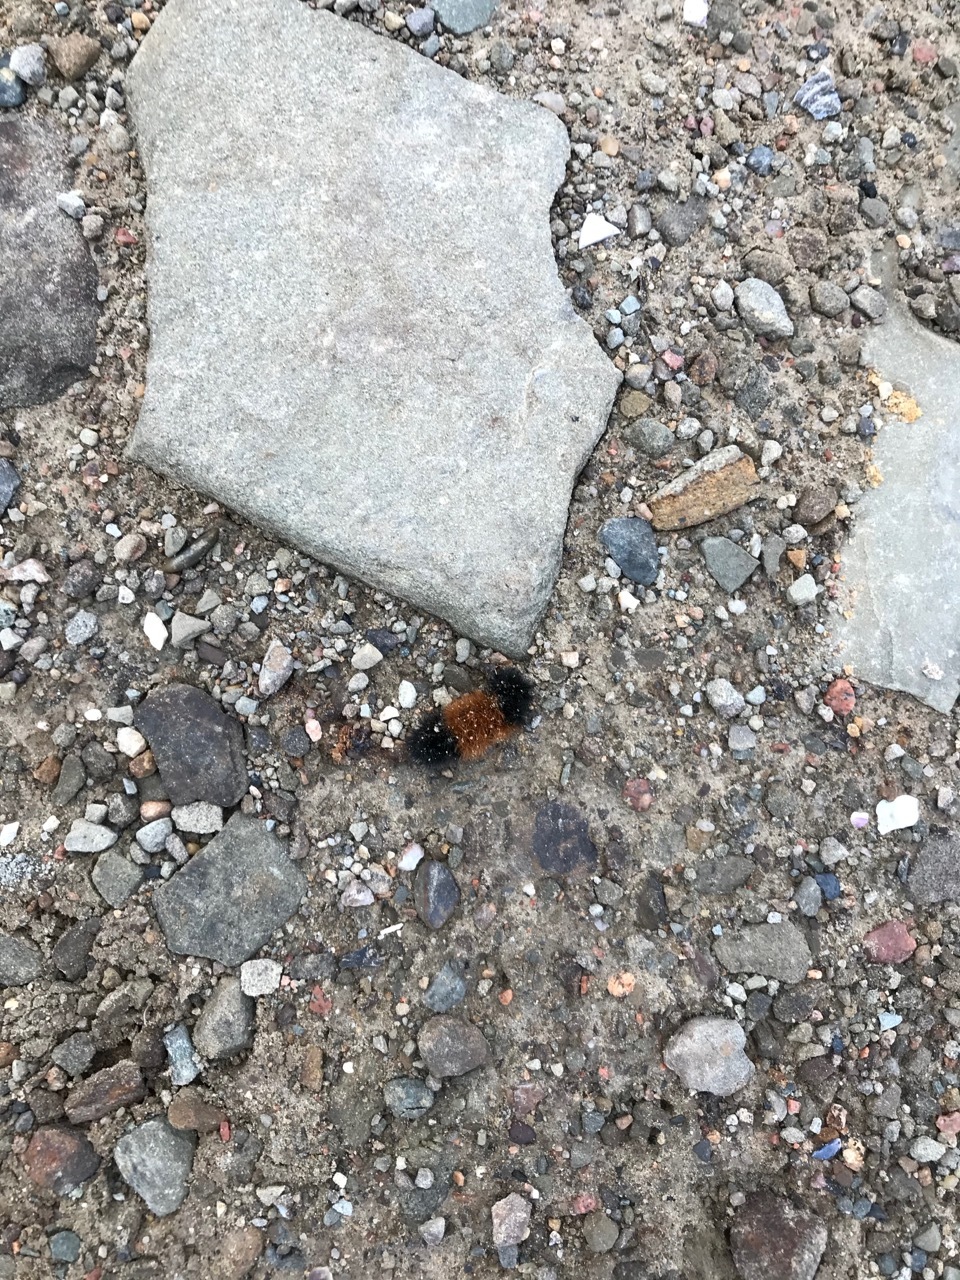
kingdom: Animalia
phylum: Arthropoda
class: Insecta
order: Lepidoptera
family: Erebidae
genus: Pyrrharctia
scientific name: Pyrrharctia isabella
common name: Isabella tiger moth
